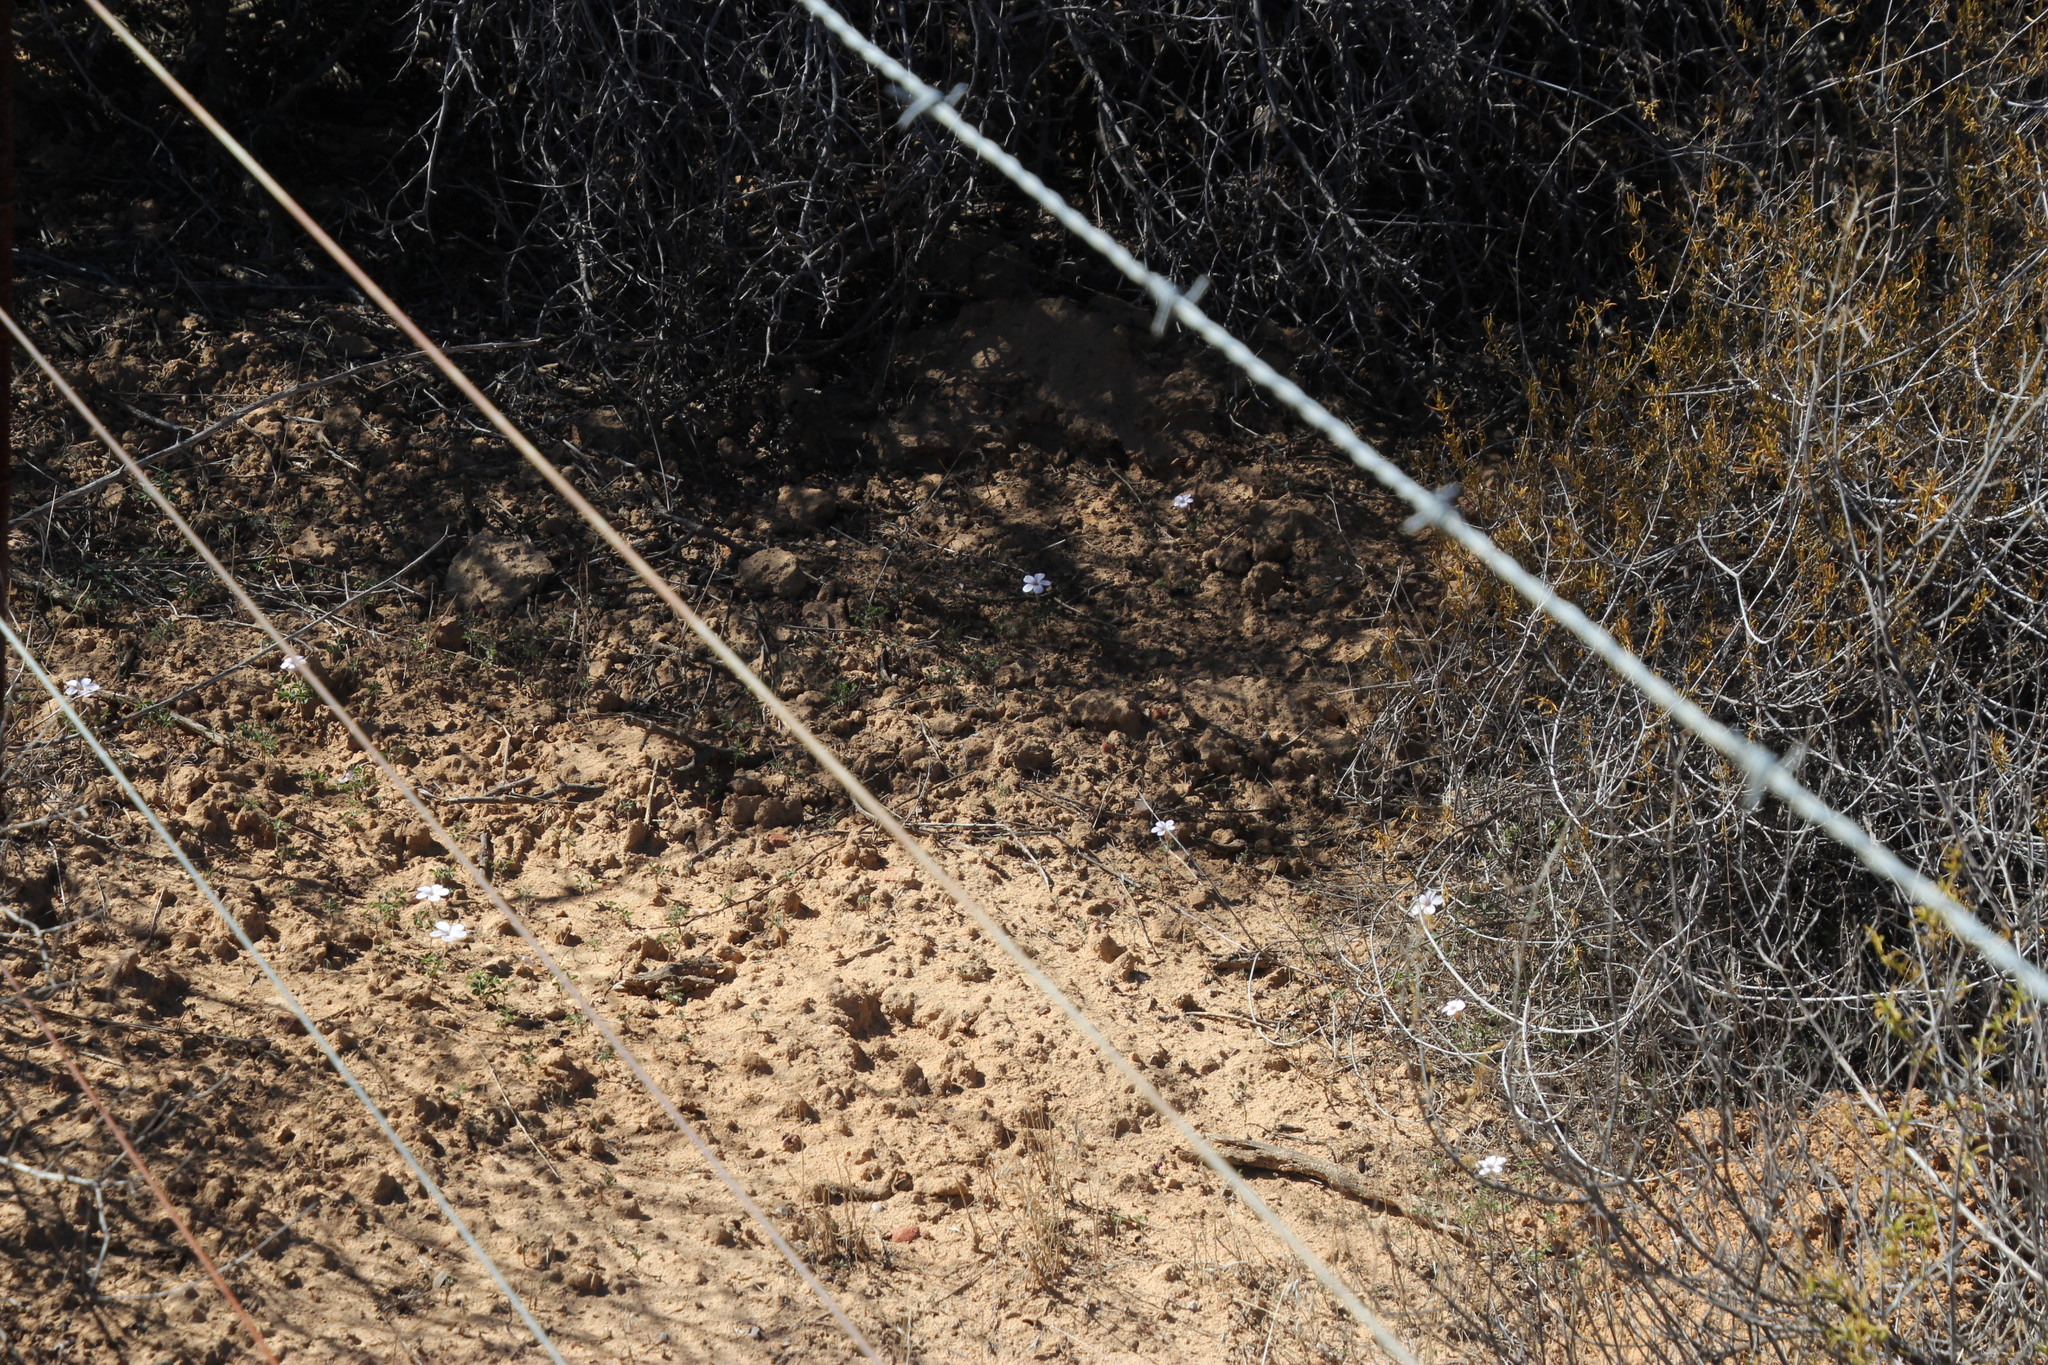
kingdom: Plantae
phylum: Tracheophyta
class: Magnoliopsida
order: Oxalidales
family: Oxalidaceae
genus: Oxalis
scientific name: Oxalis aridicola
